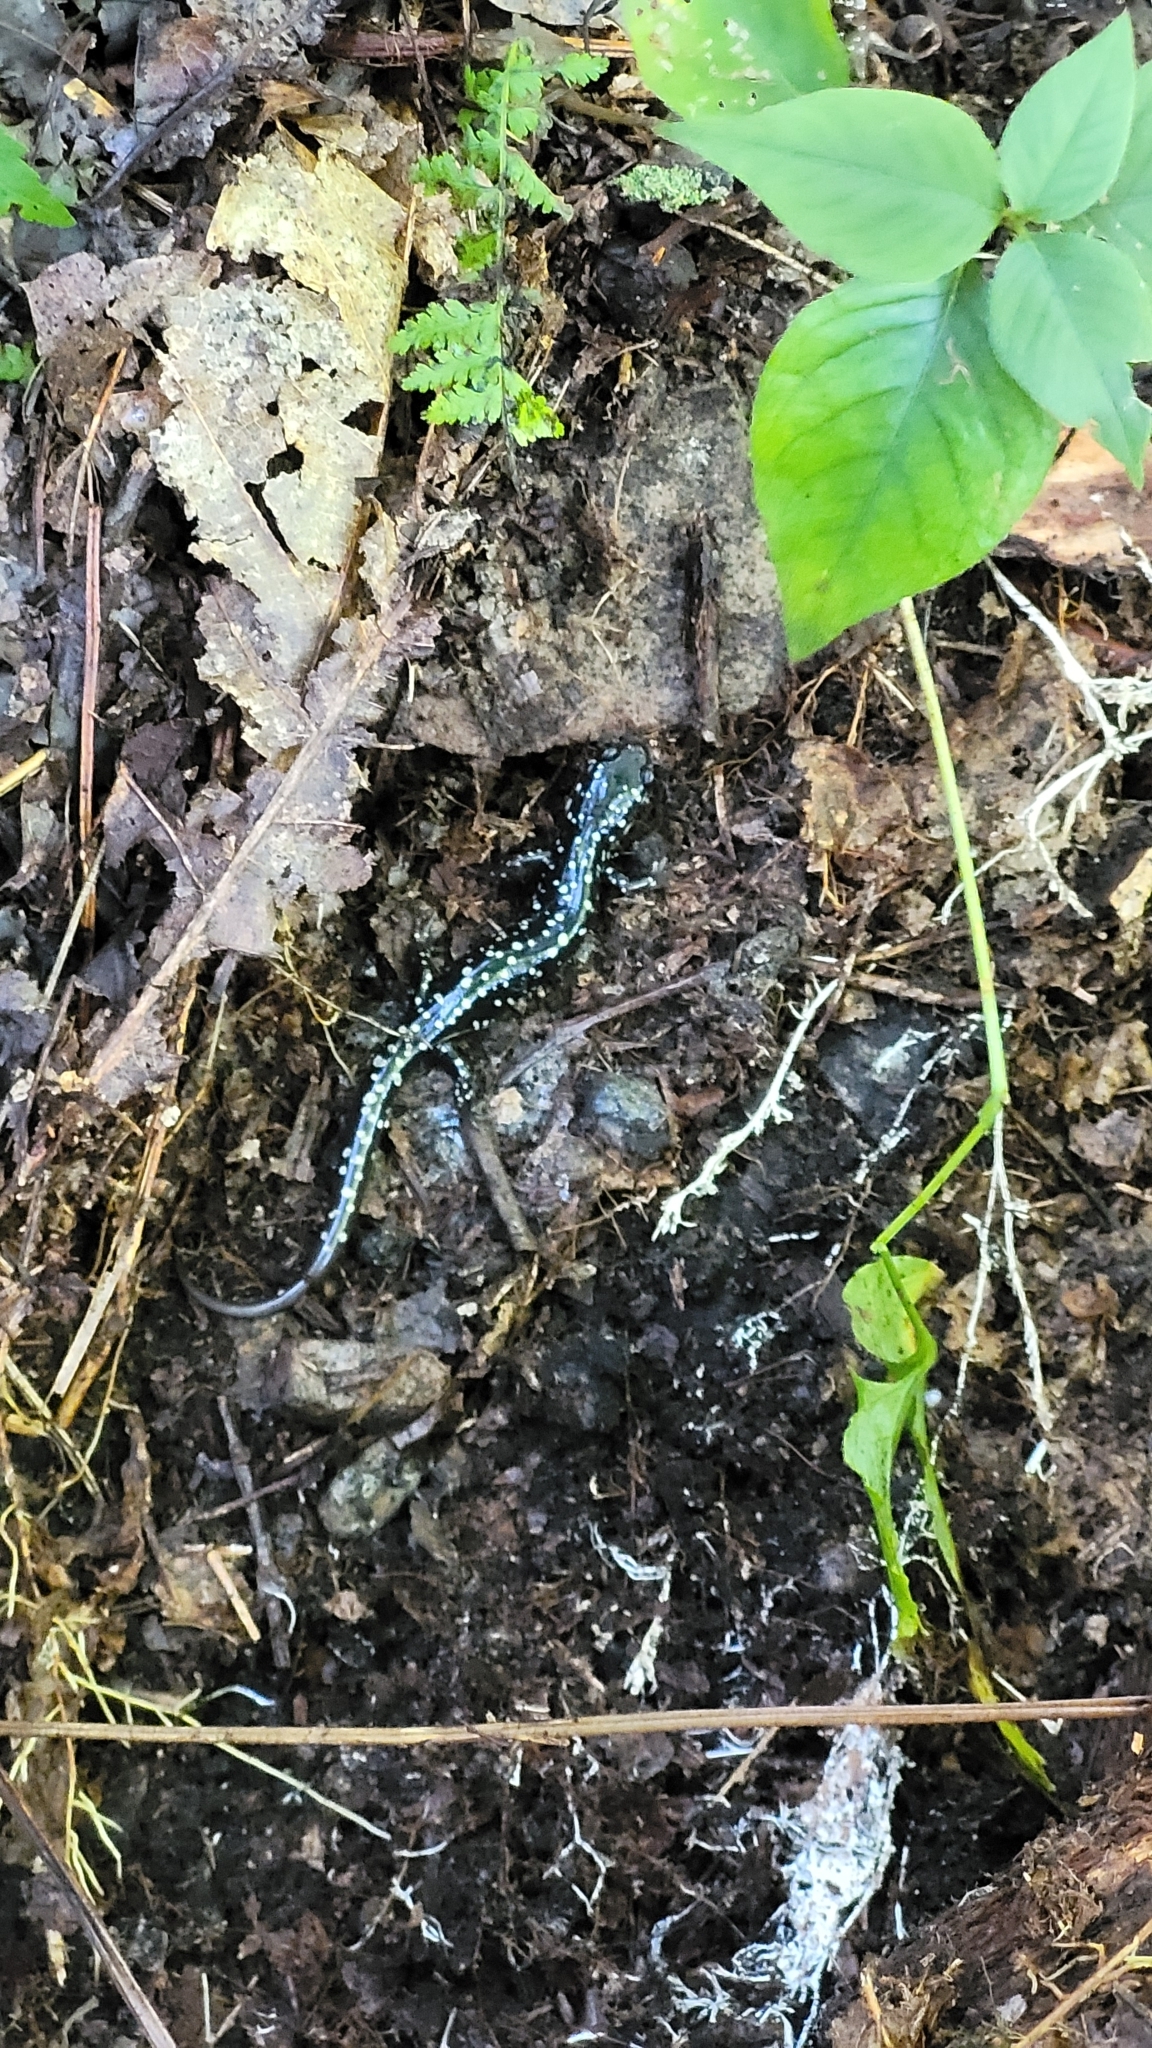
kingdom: Animalia
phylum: Chordata
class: Amphibia
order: Caudata
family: Plethodontidae
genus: Plethodon
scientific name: Plethodon glutinosus
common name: Northern slimy salamander
